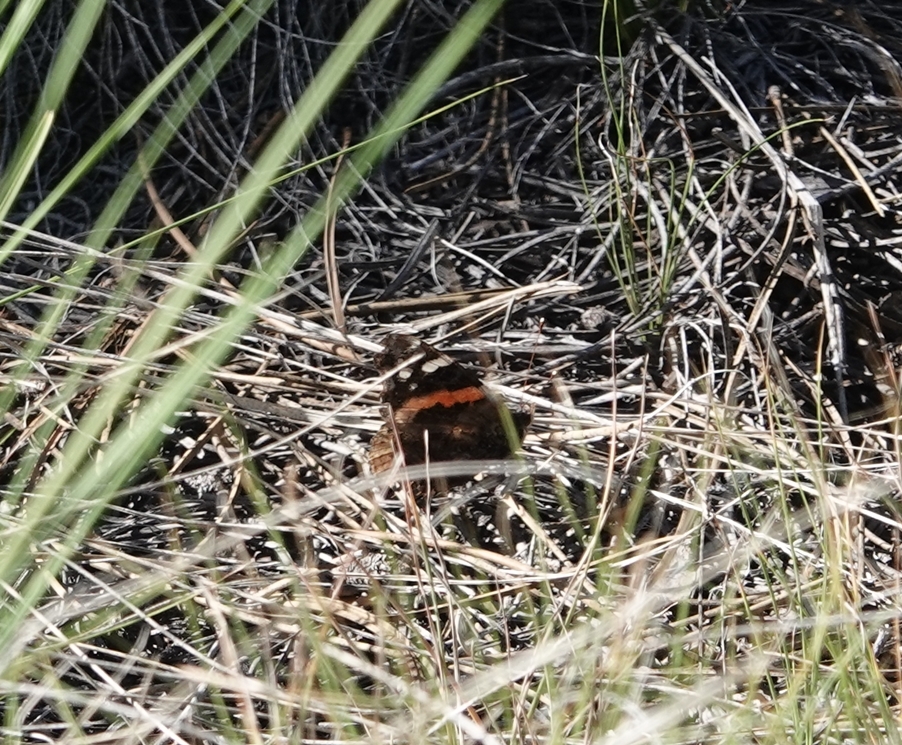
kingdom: Animalia
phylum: Arthropoda
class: Insecta
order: Lepidoptera
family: Nymphalidae
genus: Vanessa
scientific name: Vanessa atalanta
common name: Red admiral
